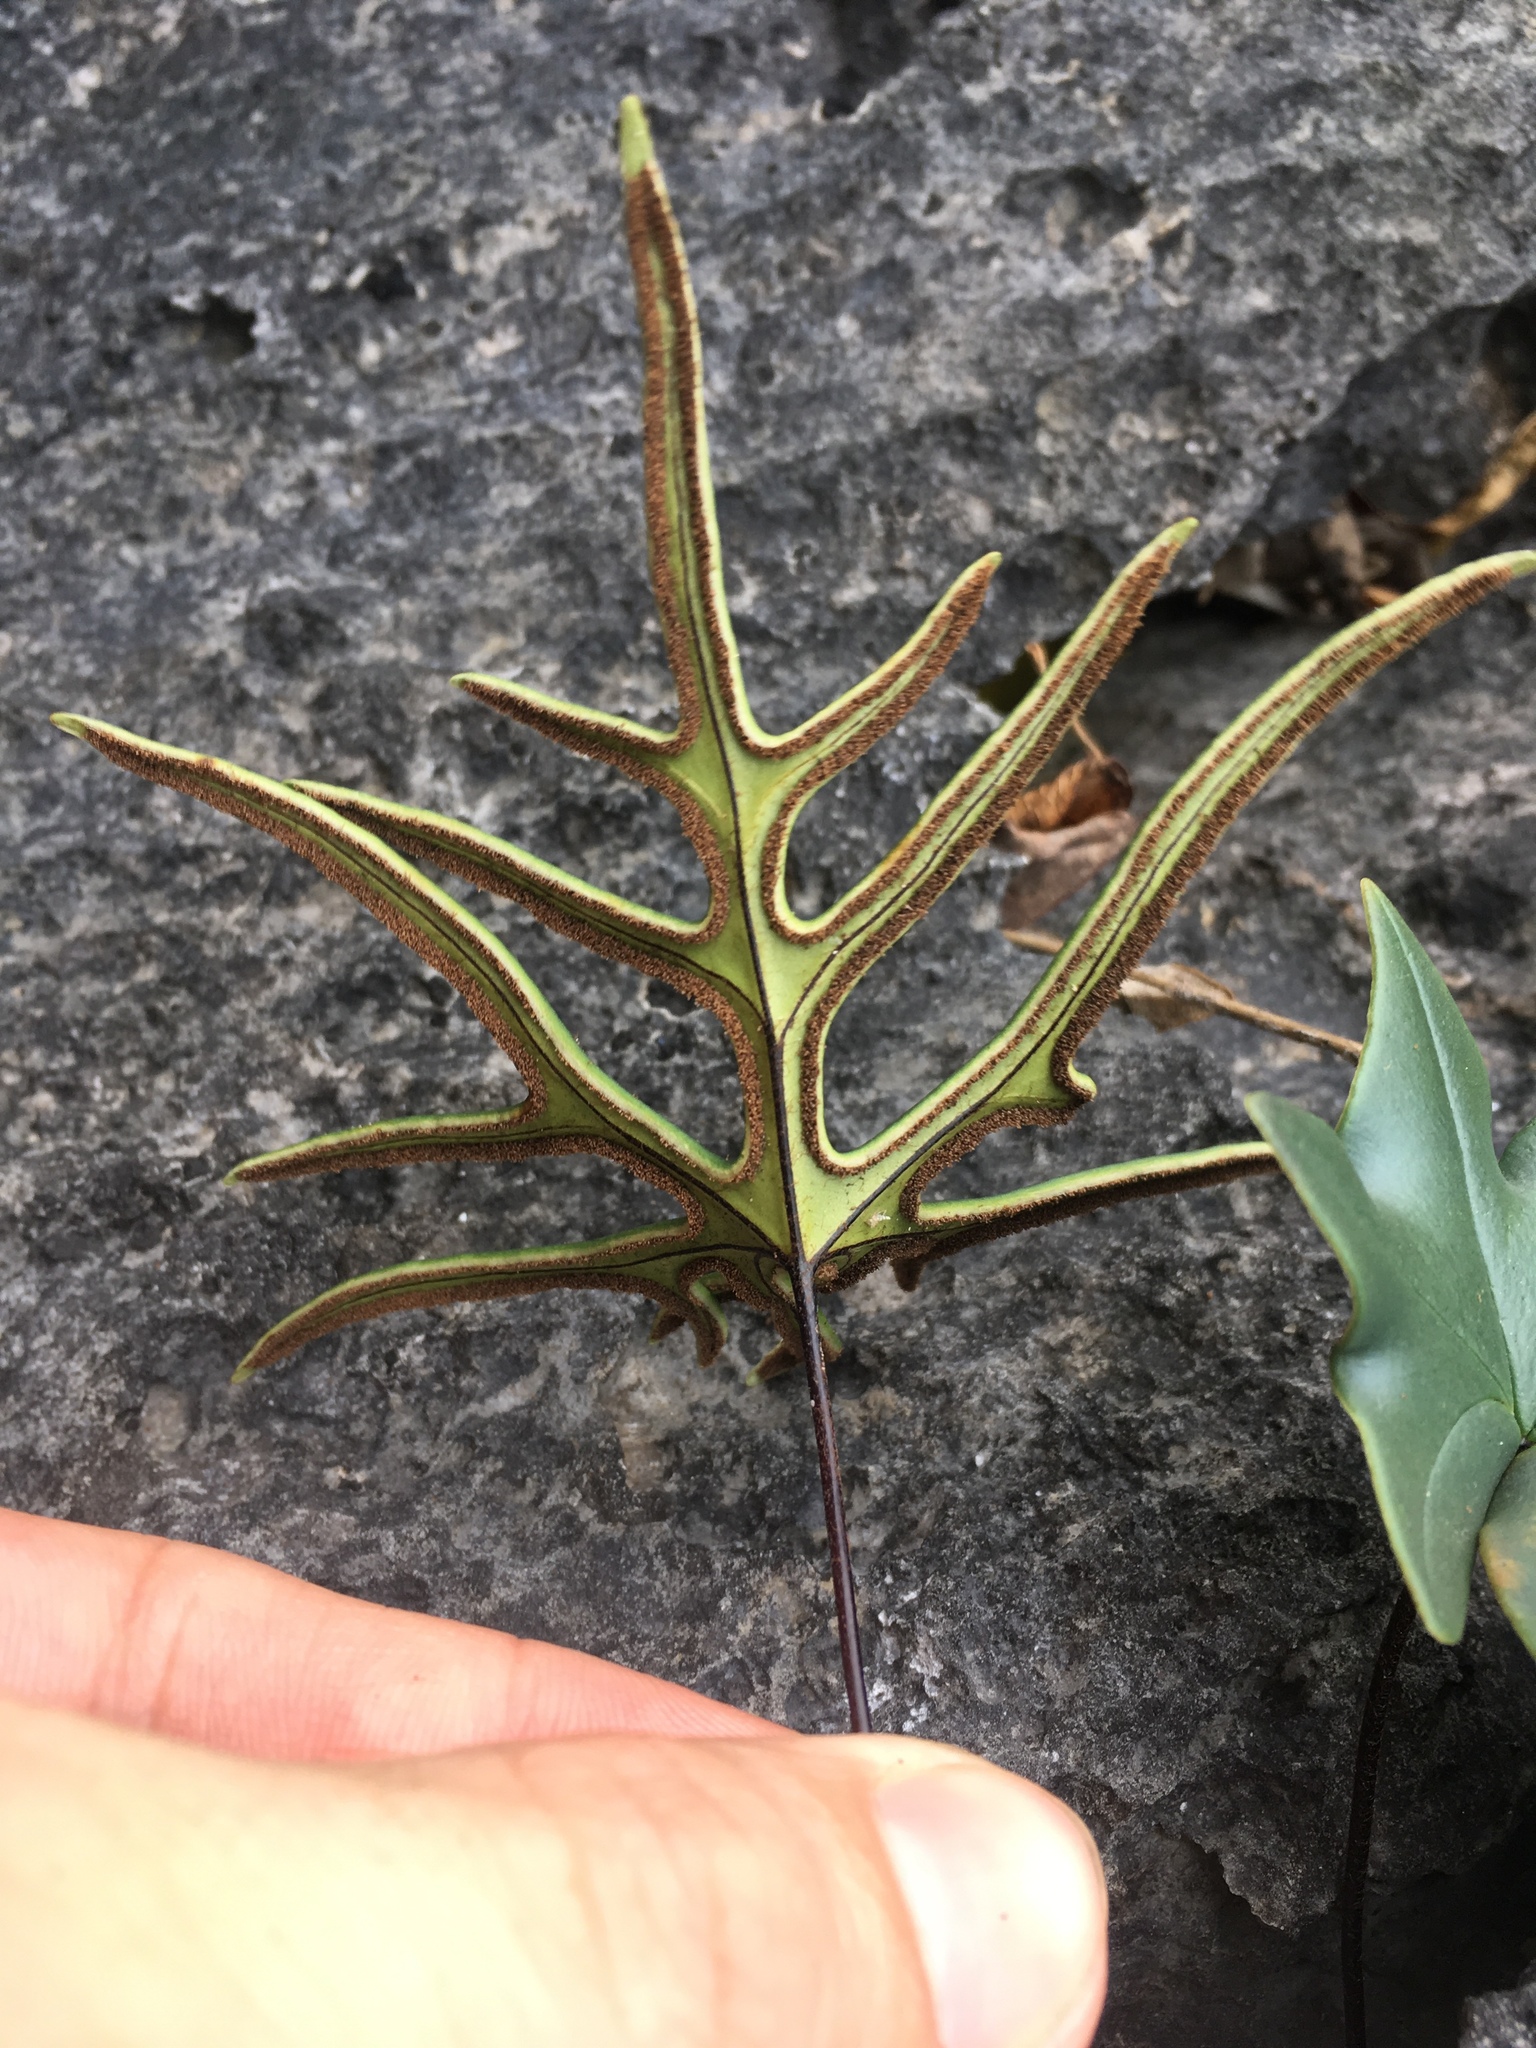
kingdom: Plantae
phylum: Tracheophyta
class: Polypodiopsida
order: Polypodiales
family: Pteridaceae
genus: Calciphilopteris
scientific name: Calciphilopteris ludens
